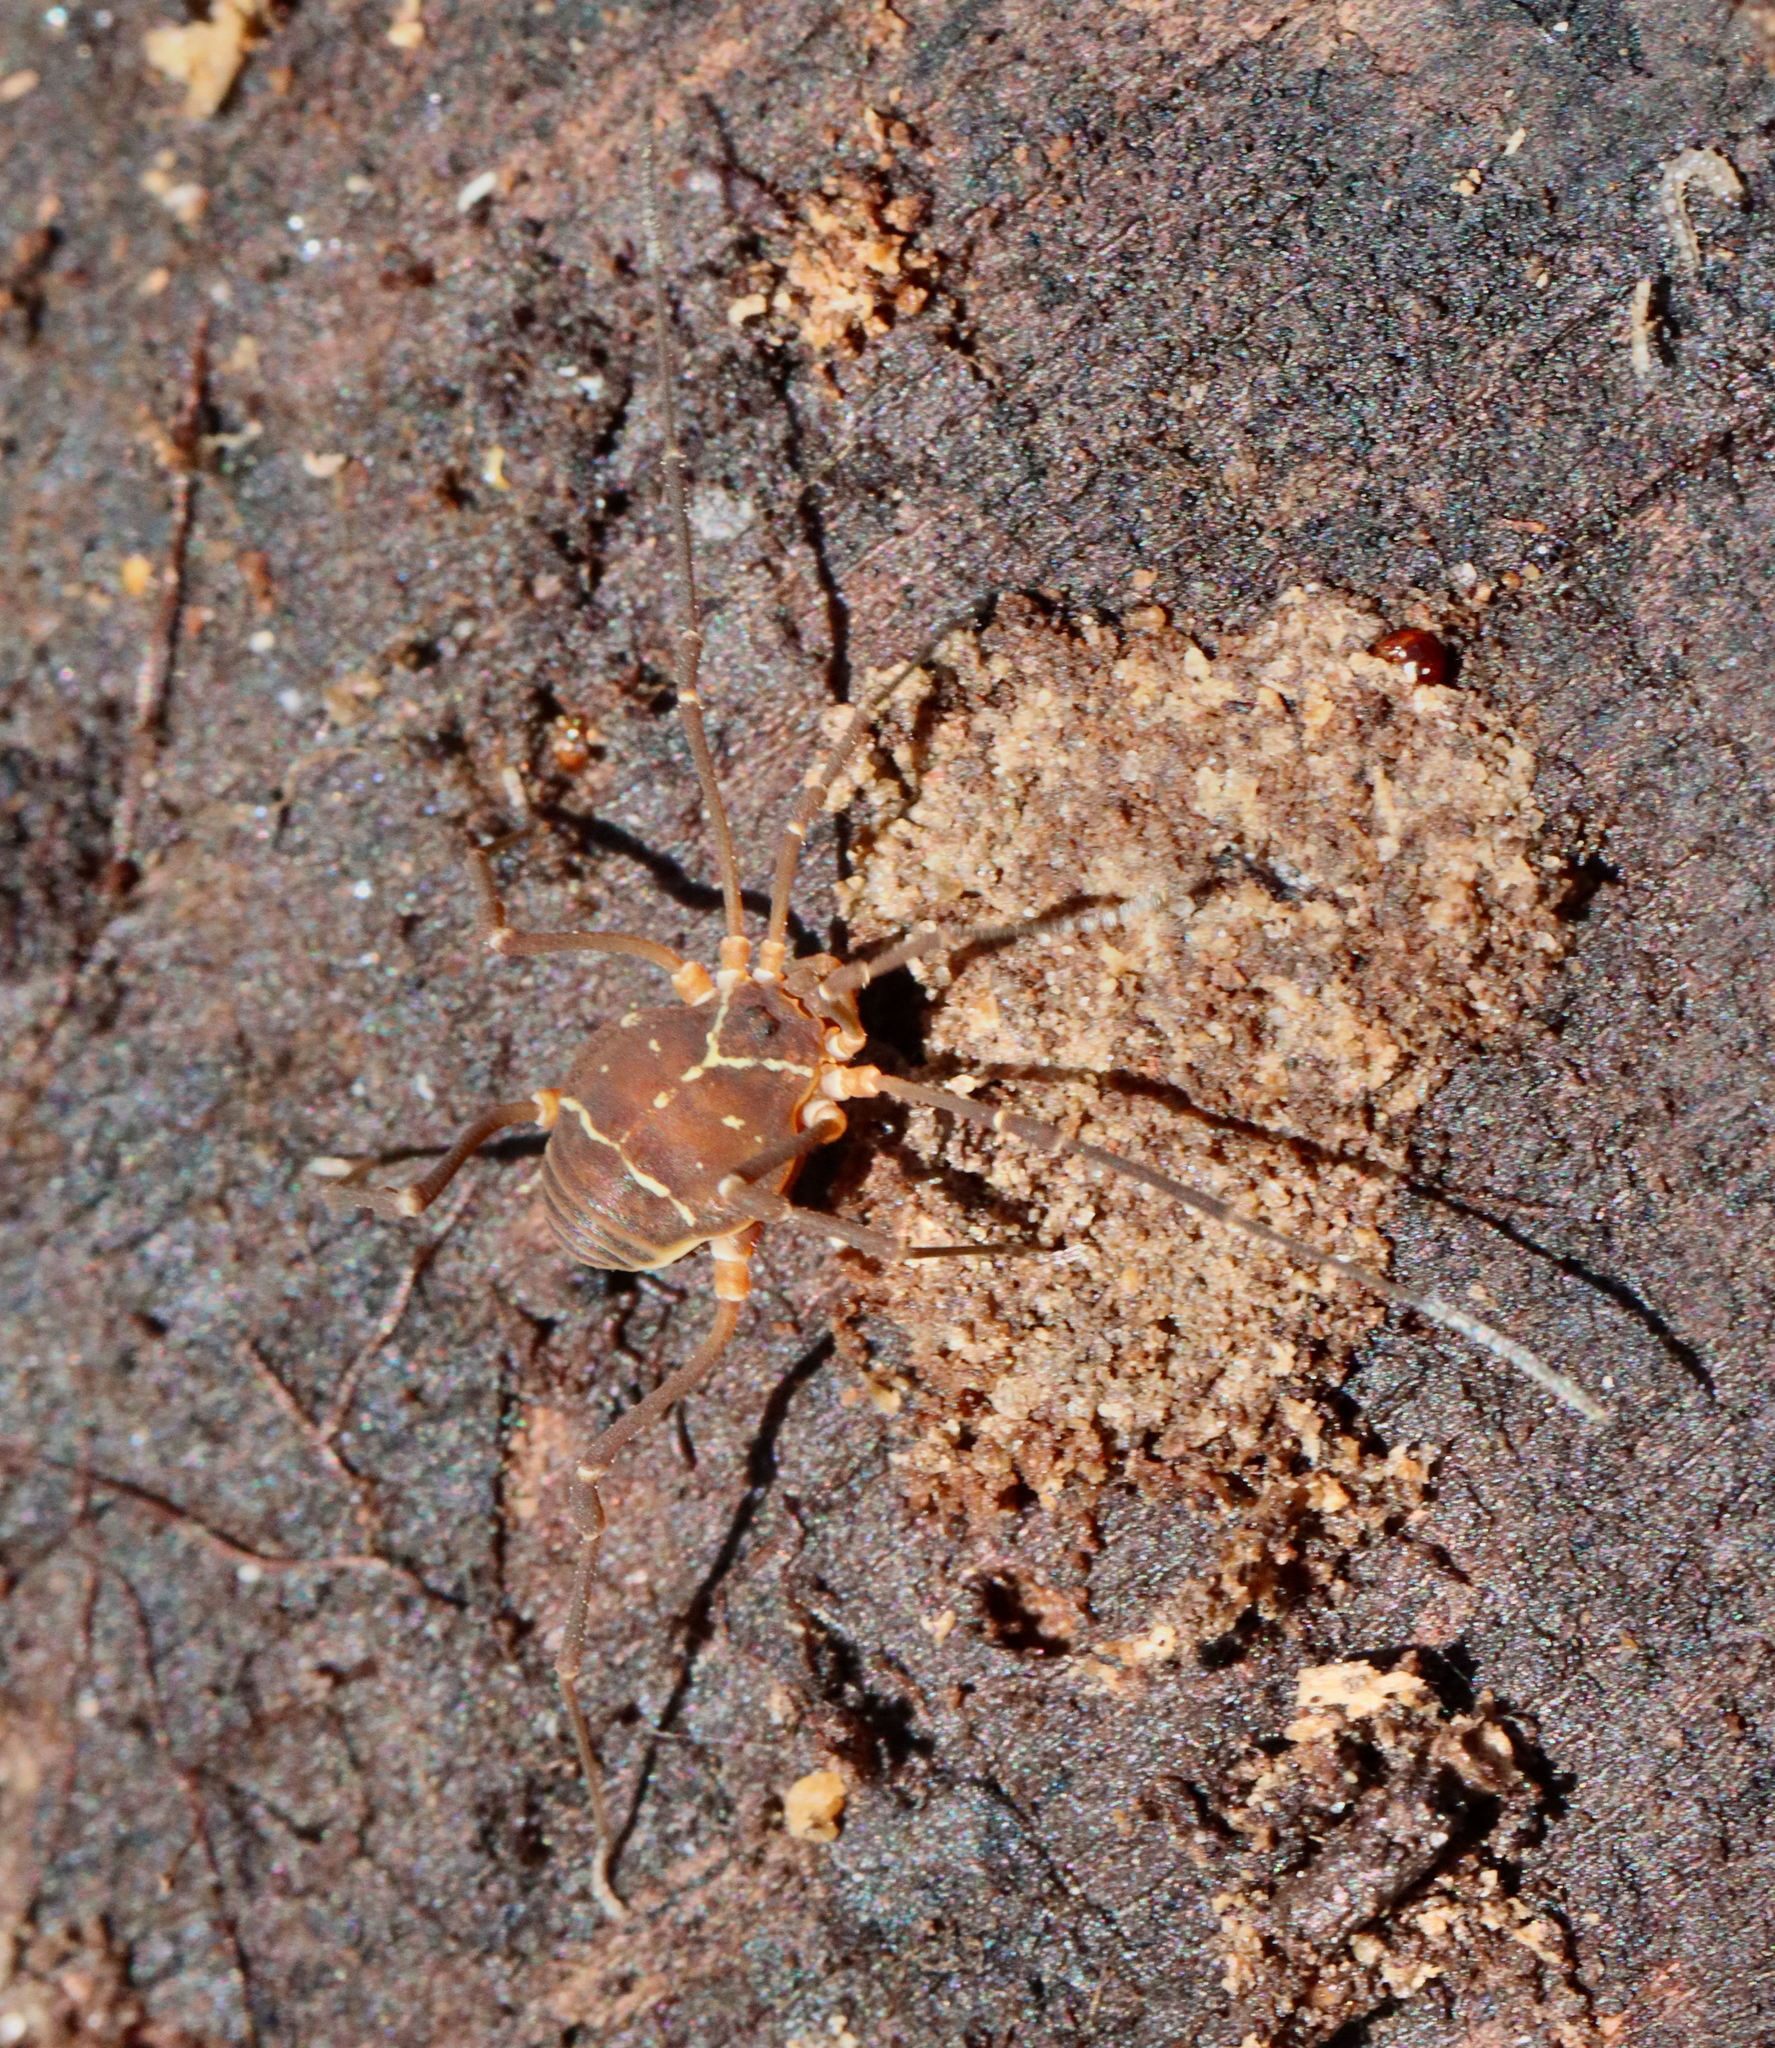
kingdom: Animalia
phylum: Arthropoda
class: Arachnida
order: Opiliones
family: Cosmetidae
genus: Libitioides
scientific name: Libitioides sayi
